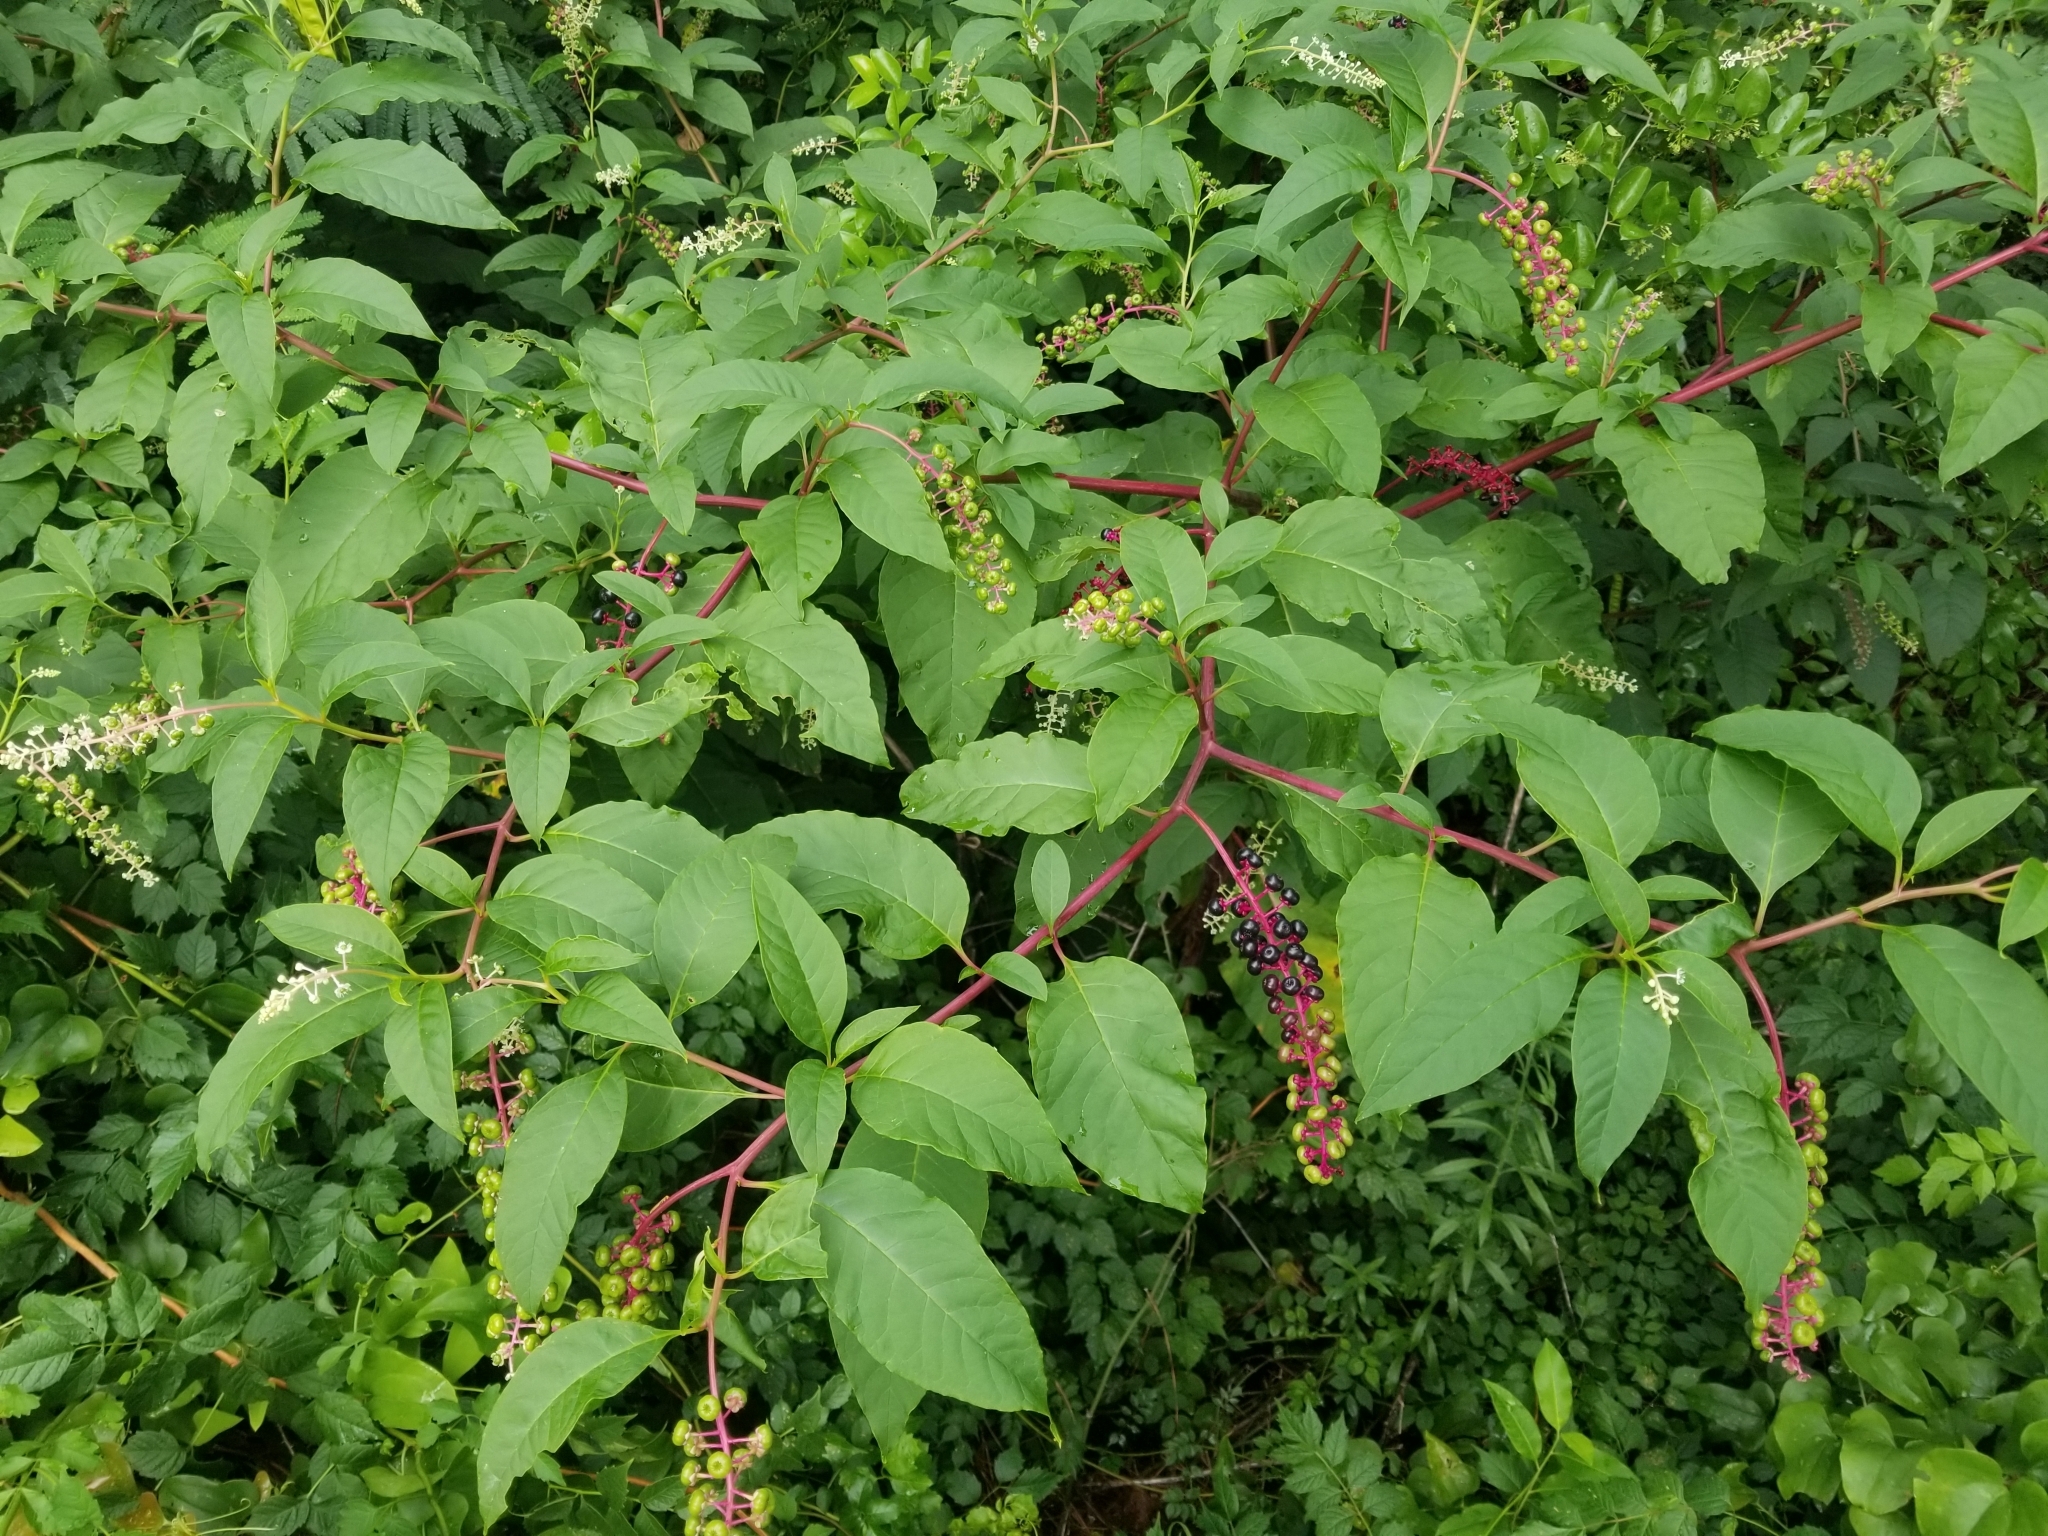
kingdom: Plantae
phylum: Tracheophyta
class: Magnoliopsida
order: Caryophyllales
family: Phytolaccaceae
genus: Phytolacca
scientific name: Phytolacca americana
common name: American pokeweed
